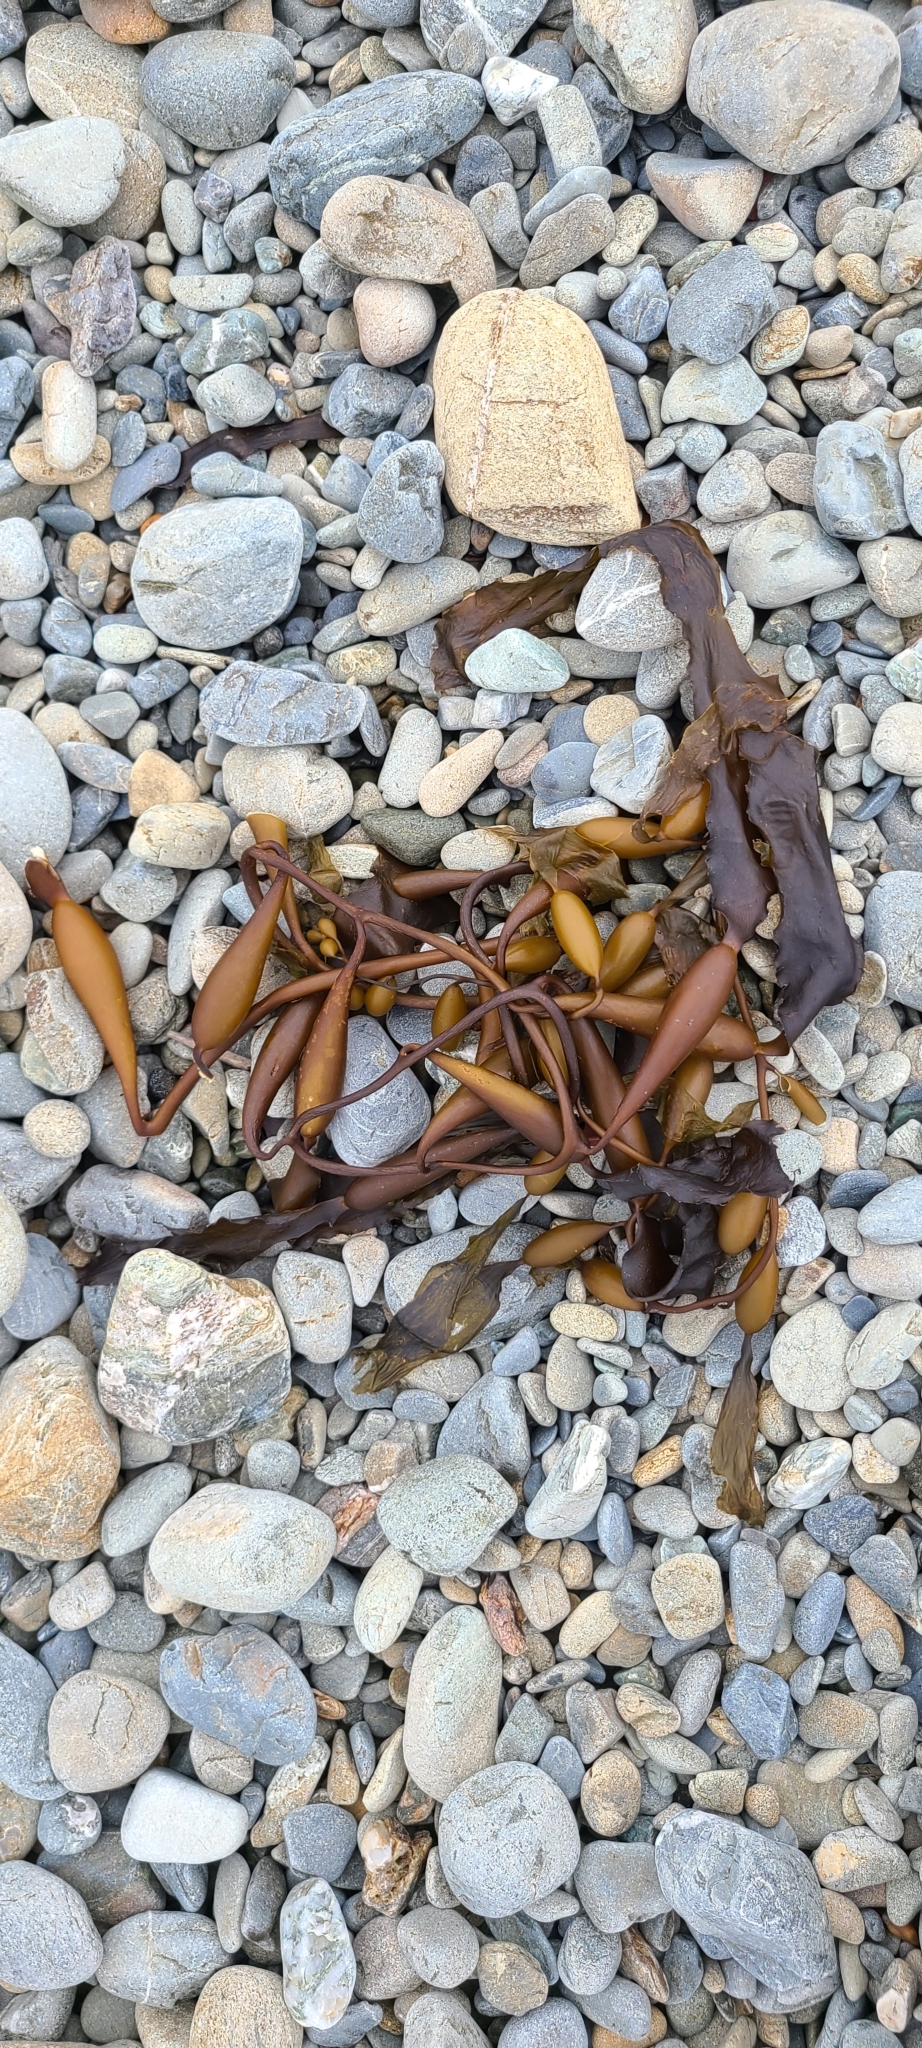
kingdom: Chromista
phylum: Ochrophyta
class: Phaeophyceae
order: Laminariales
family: Laminariaceae
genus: Macrocystis
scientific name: Macrocystis pyrifera
